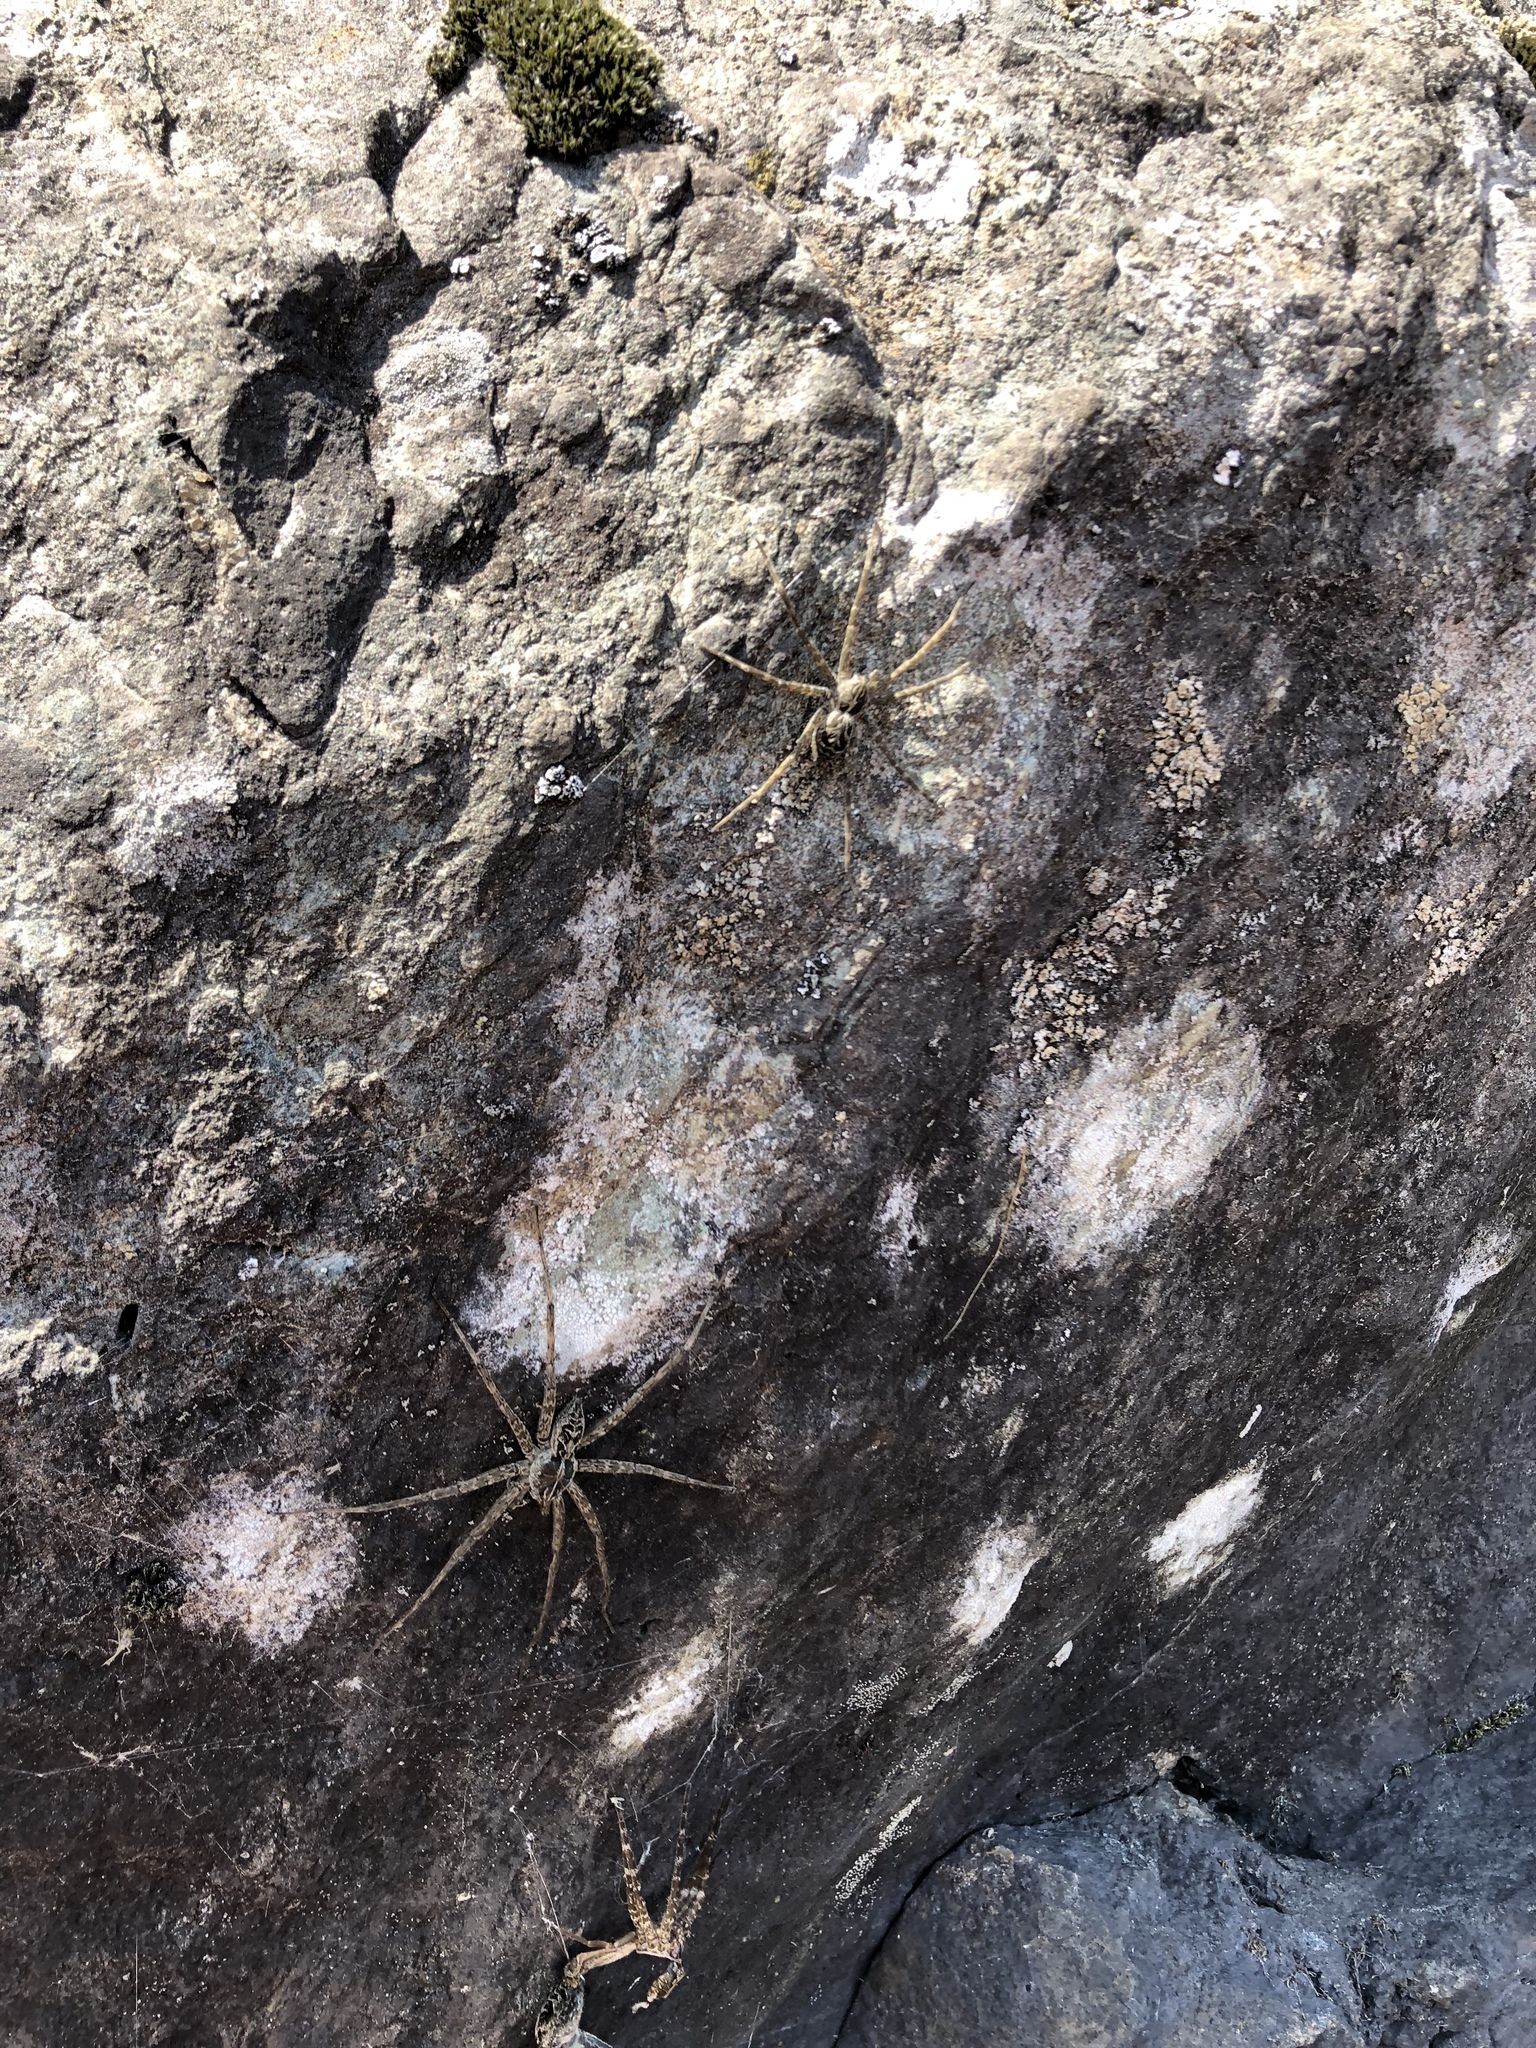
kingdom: Animalia
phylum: Arthropoda
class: Arachnida
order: Araneae
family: Pisauridae
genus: Dolomedes
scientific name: Dolomedes scriptus
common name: Striped fishing spider
